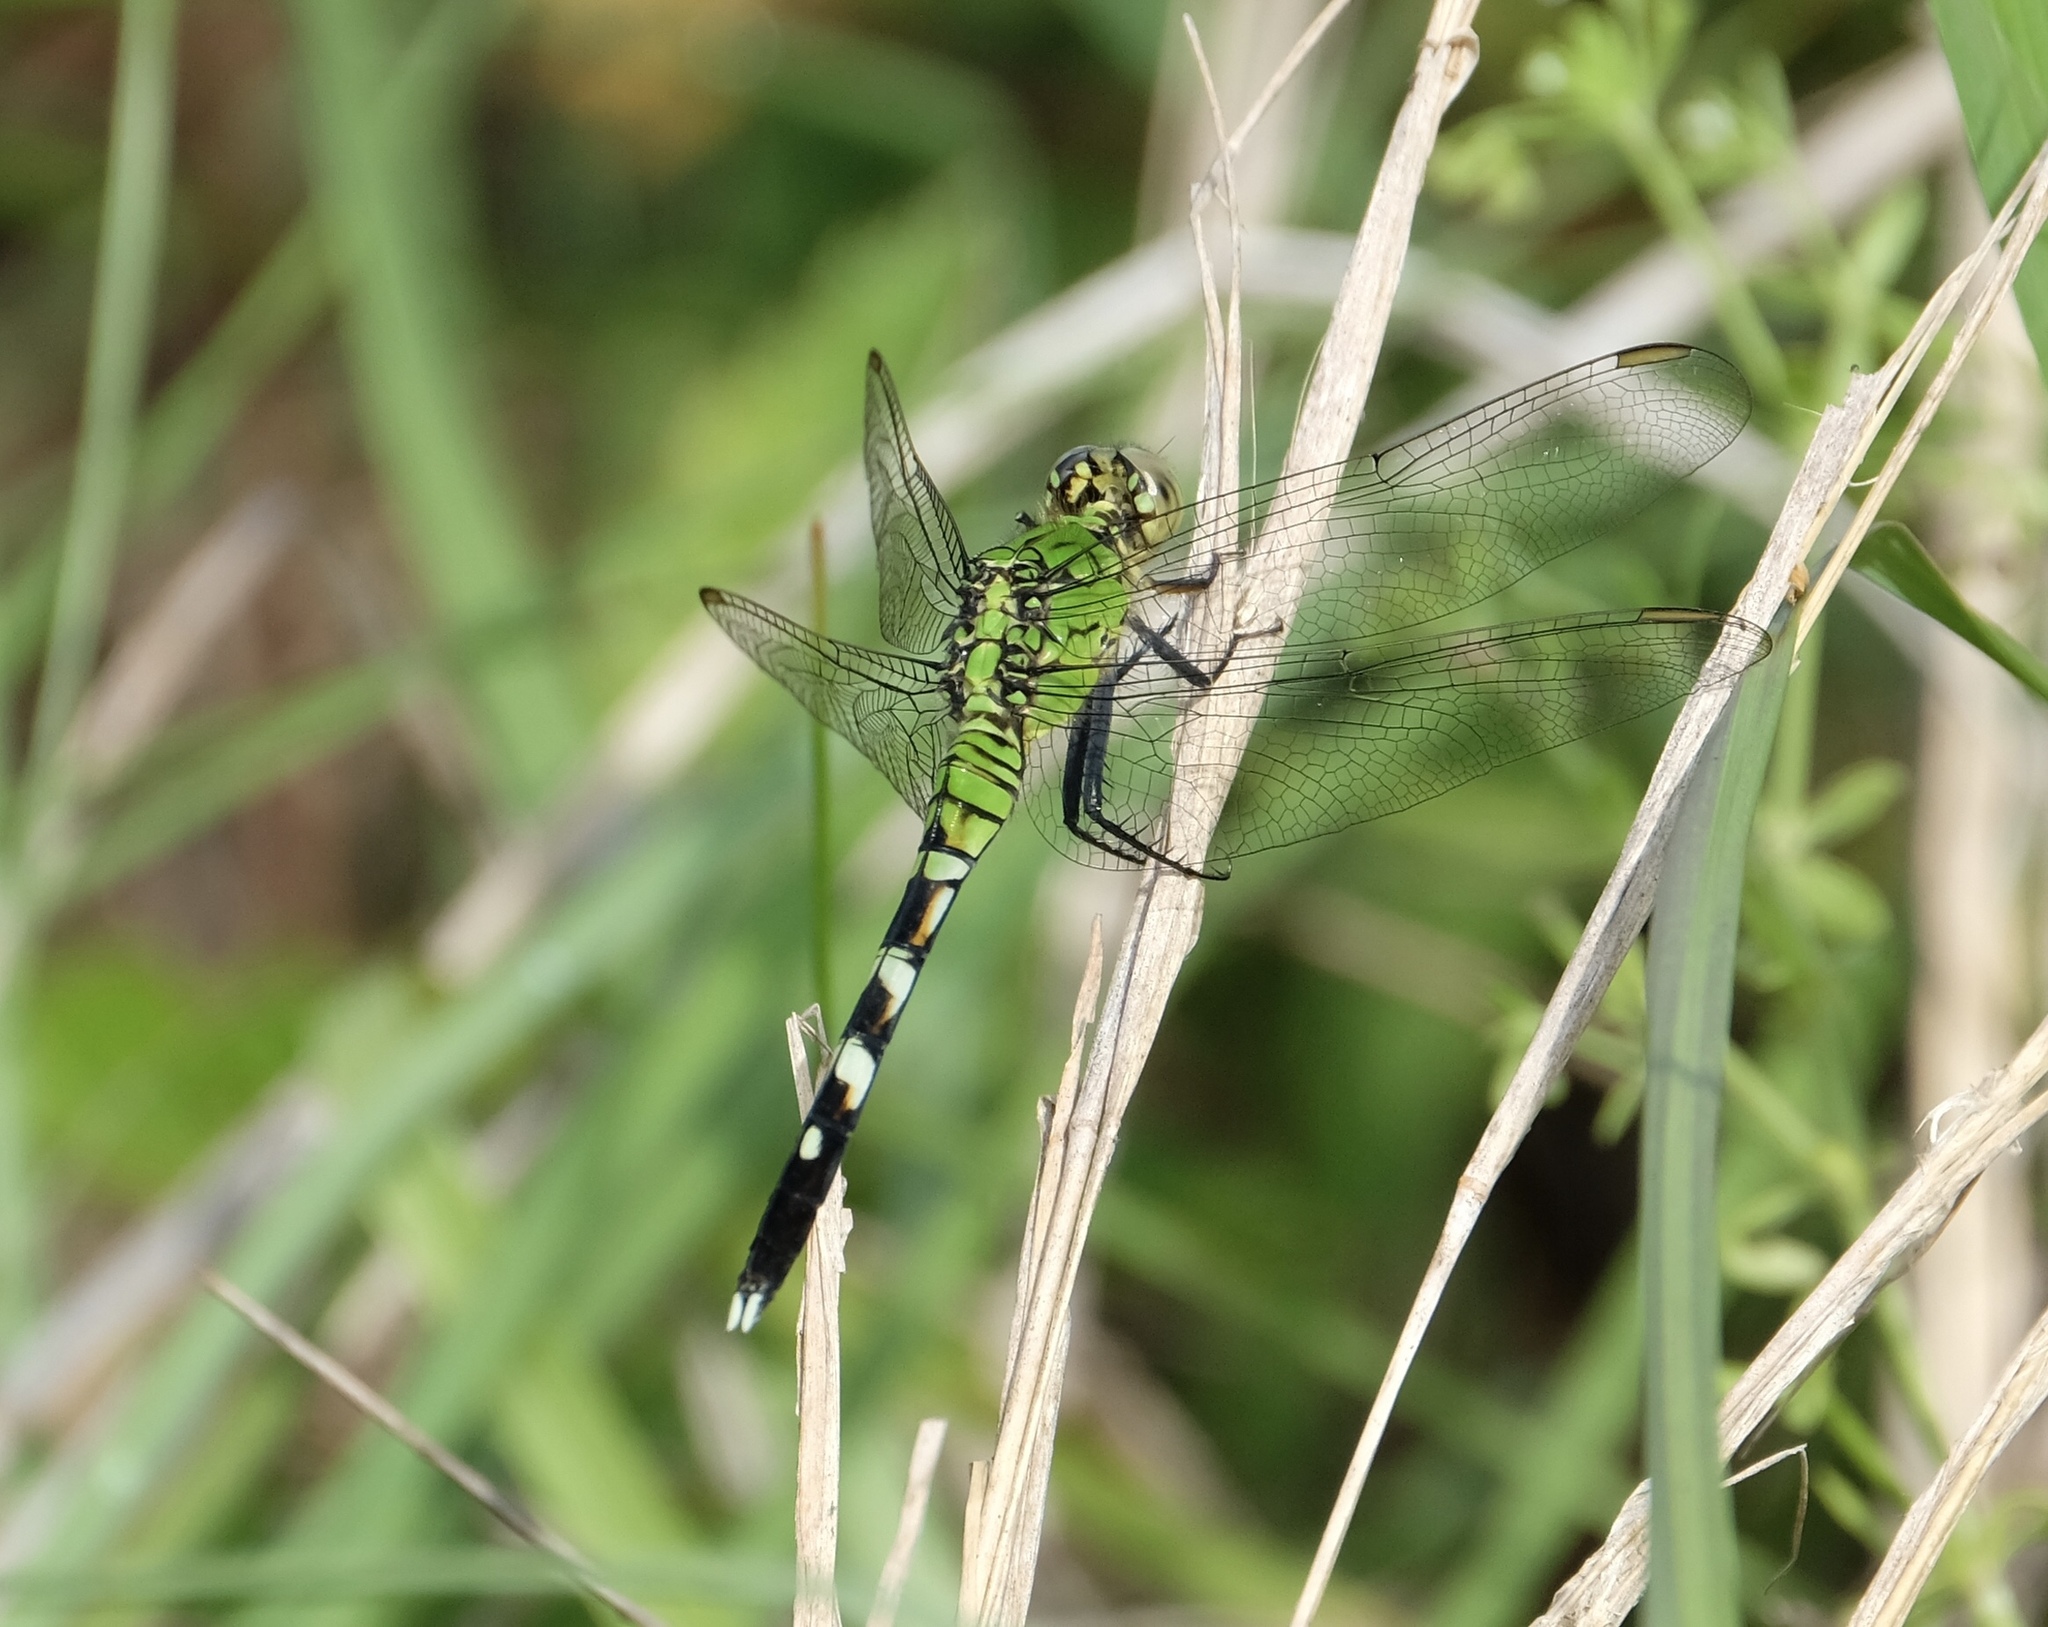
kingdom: Animalia
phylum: Arthropoda
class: Insecta
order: Odonata
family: Libellulidae
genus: Erythemis
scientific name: Erythemis simplicicollis
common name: Eastern pondhawk
